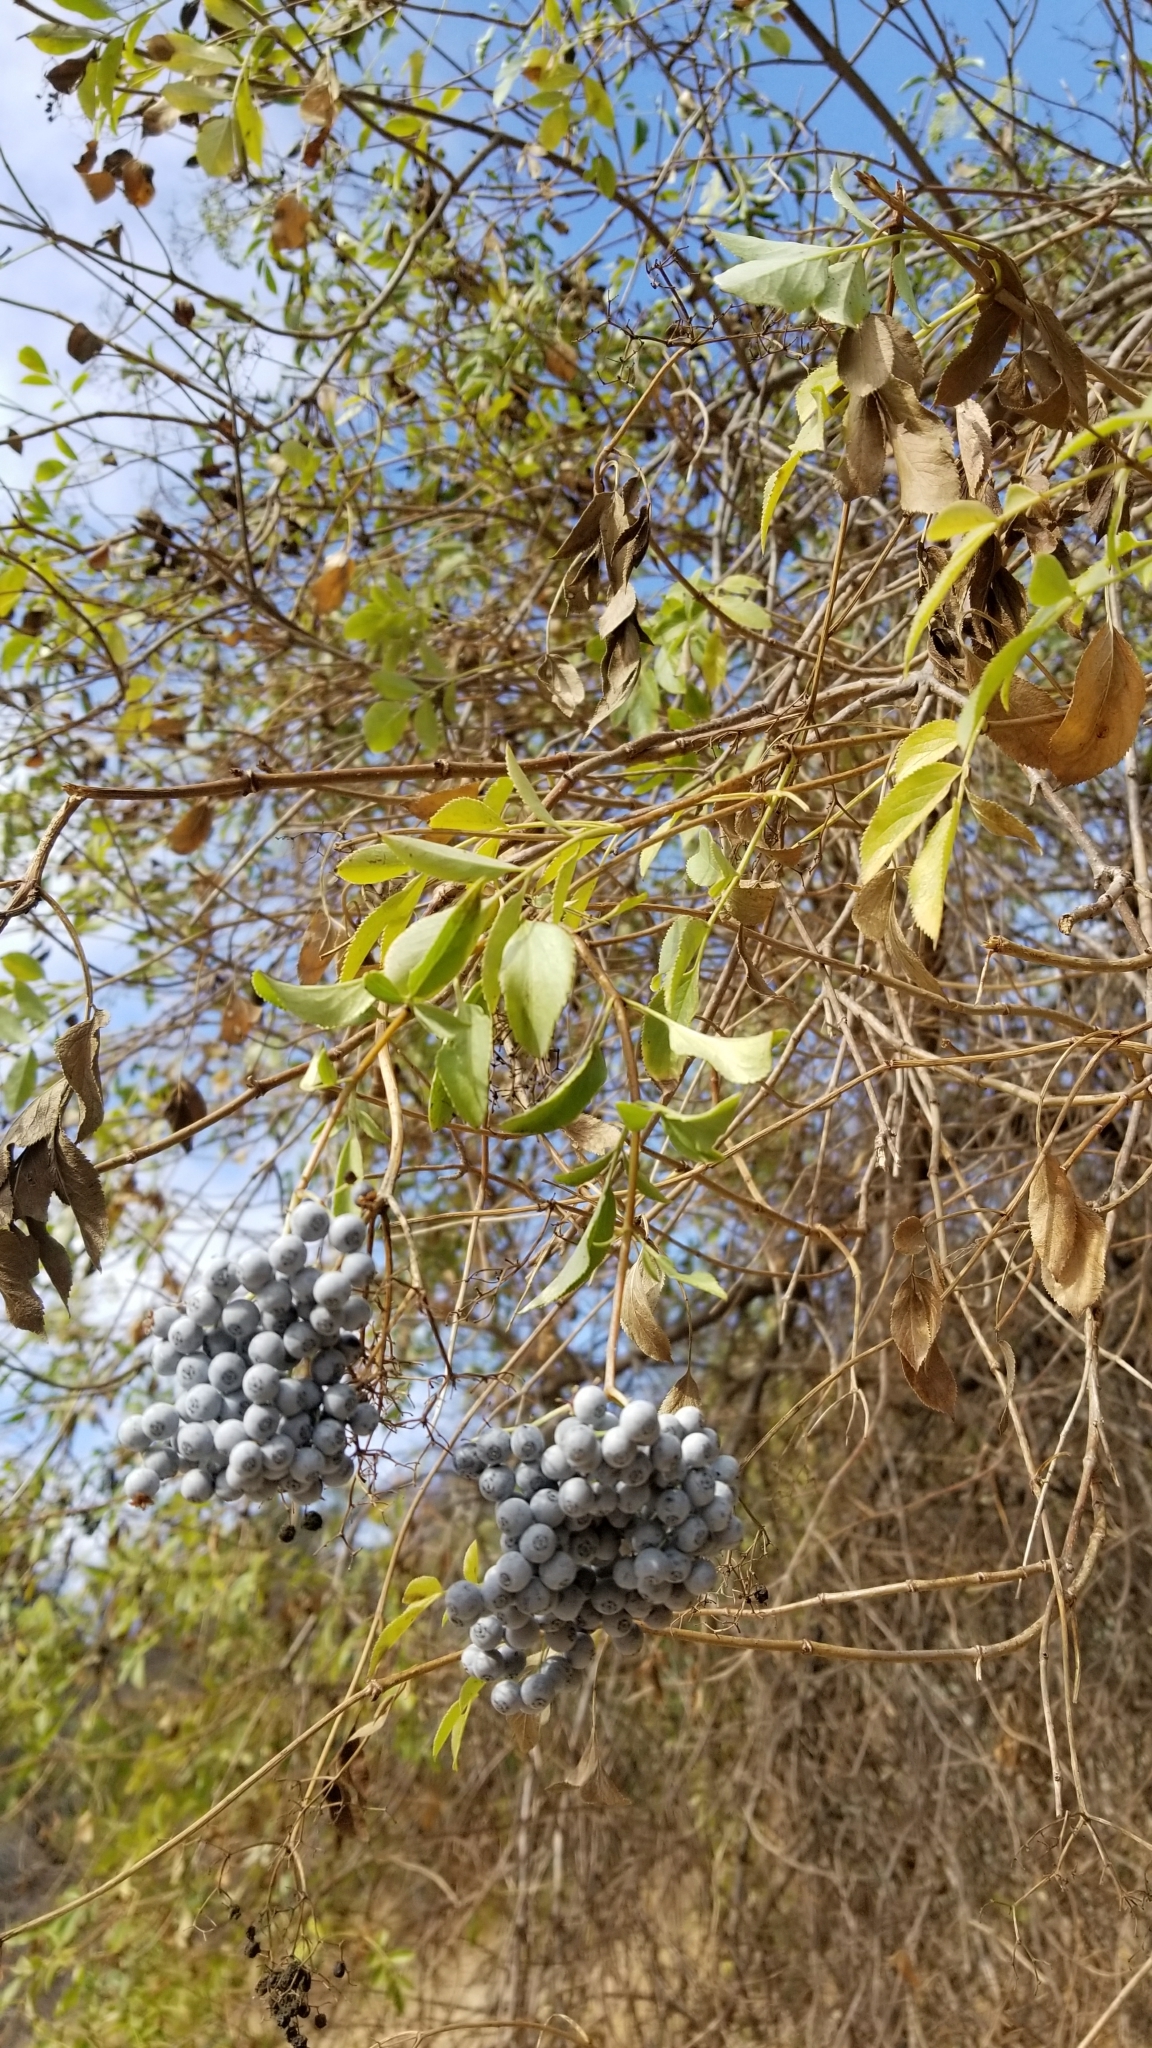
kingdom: Plantae
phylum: Tracheophyta
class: Magnoliopsida
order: Dipsacales
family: Viburnaceae
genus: Sambucus
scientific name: Sambucus cerulea
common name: Blue elder
